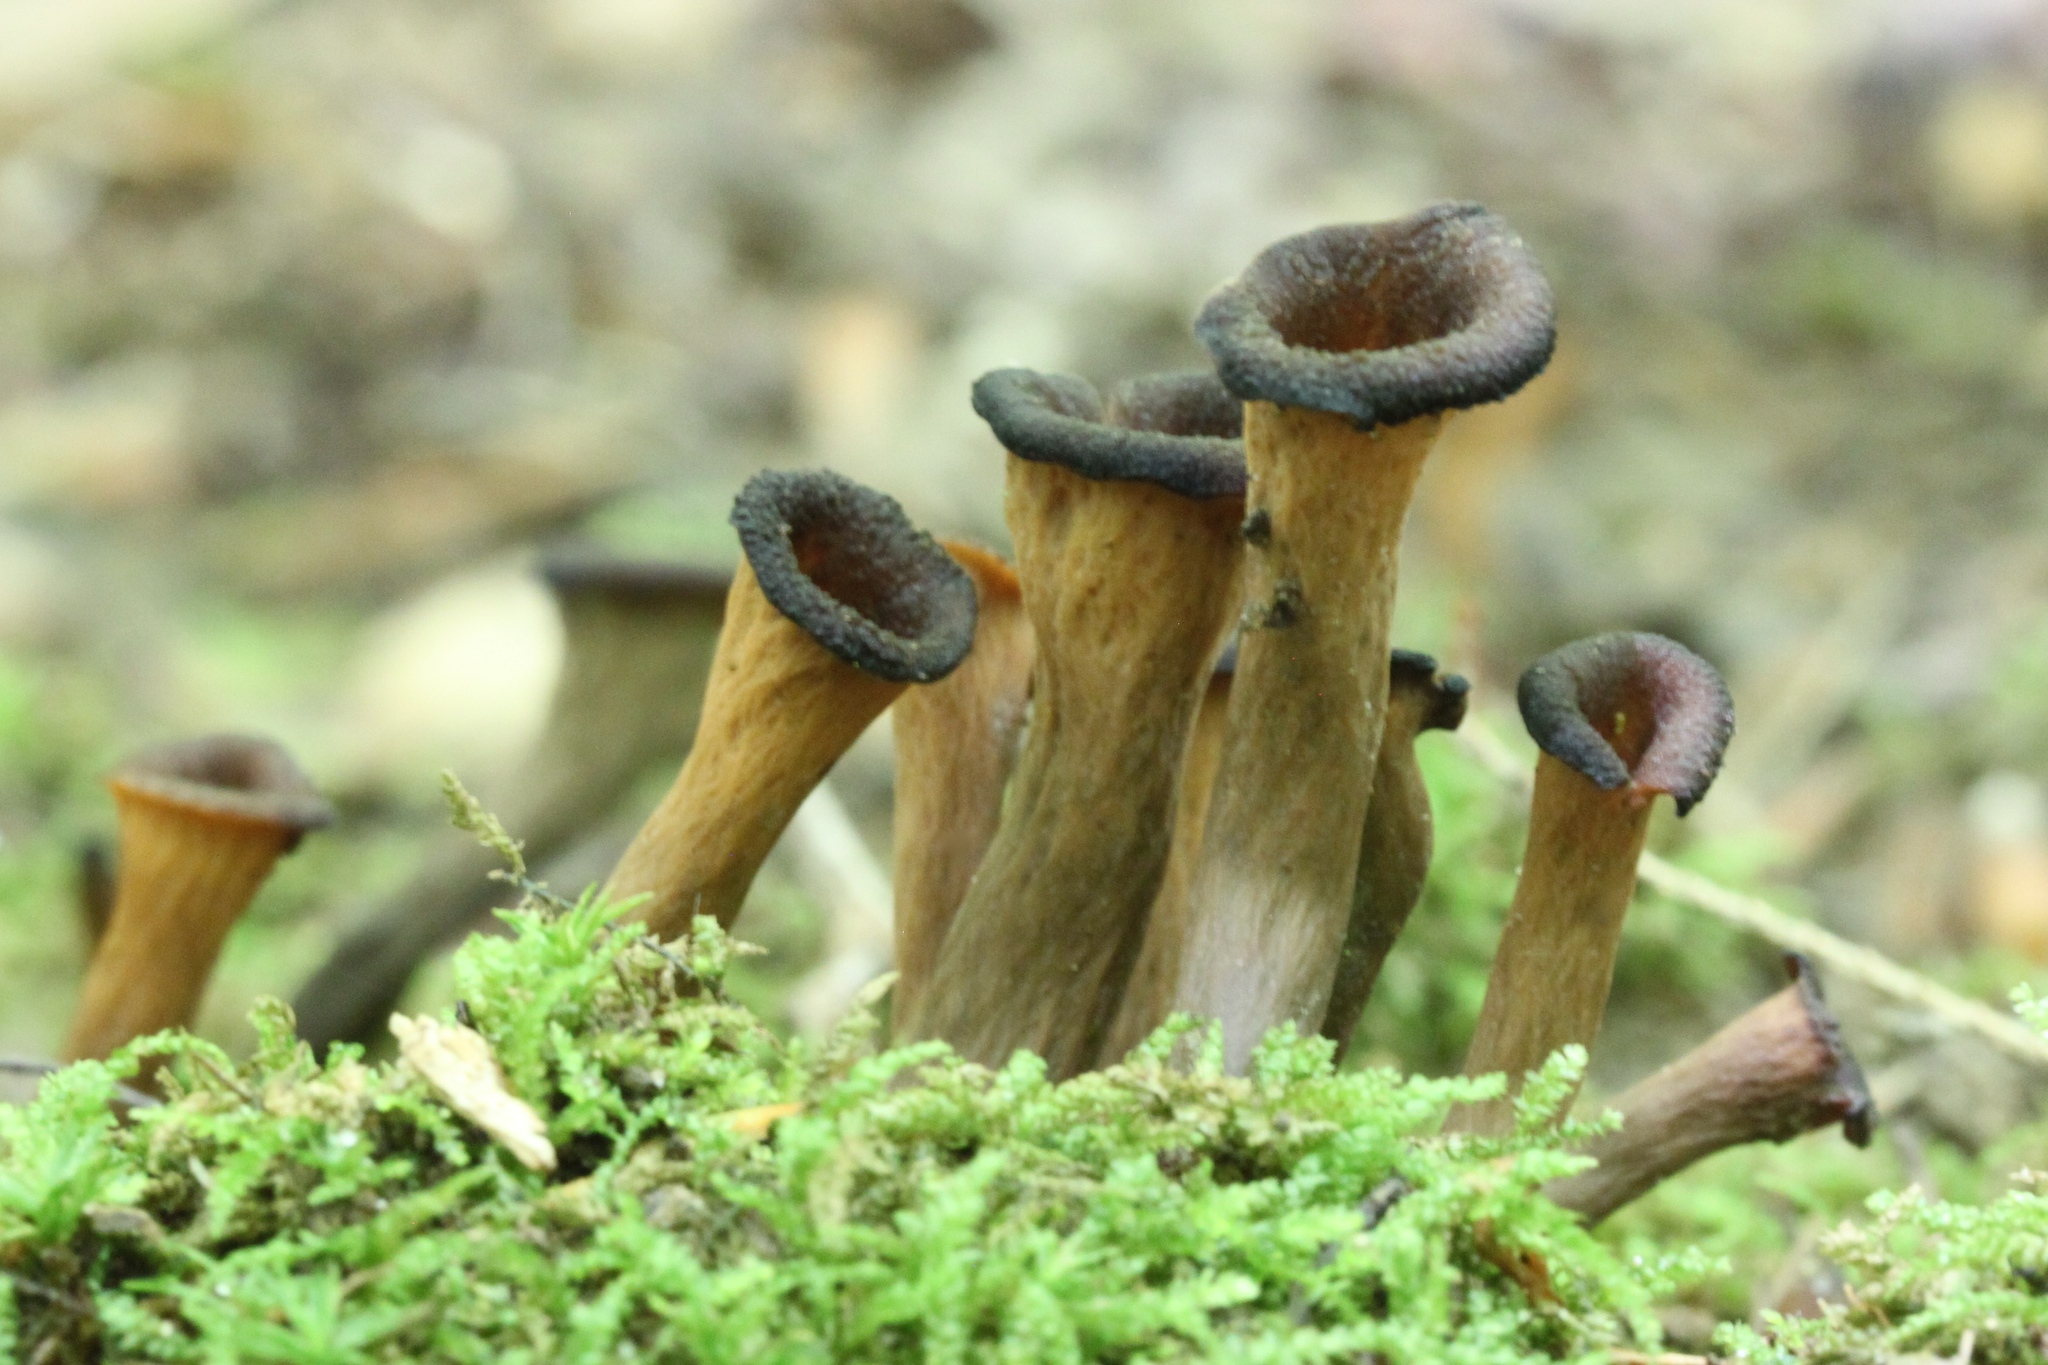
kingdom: Fungi
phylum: Basidiomycota
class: Agaricomycetes
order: Cantharellales
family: Hydnaceae
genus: Craterellus
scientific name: Craterellus cornucopioides
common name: Horn of plenty
